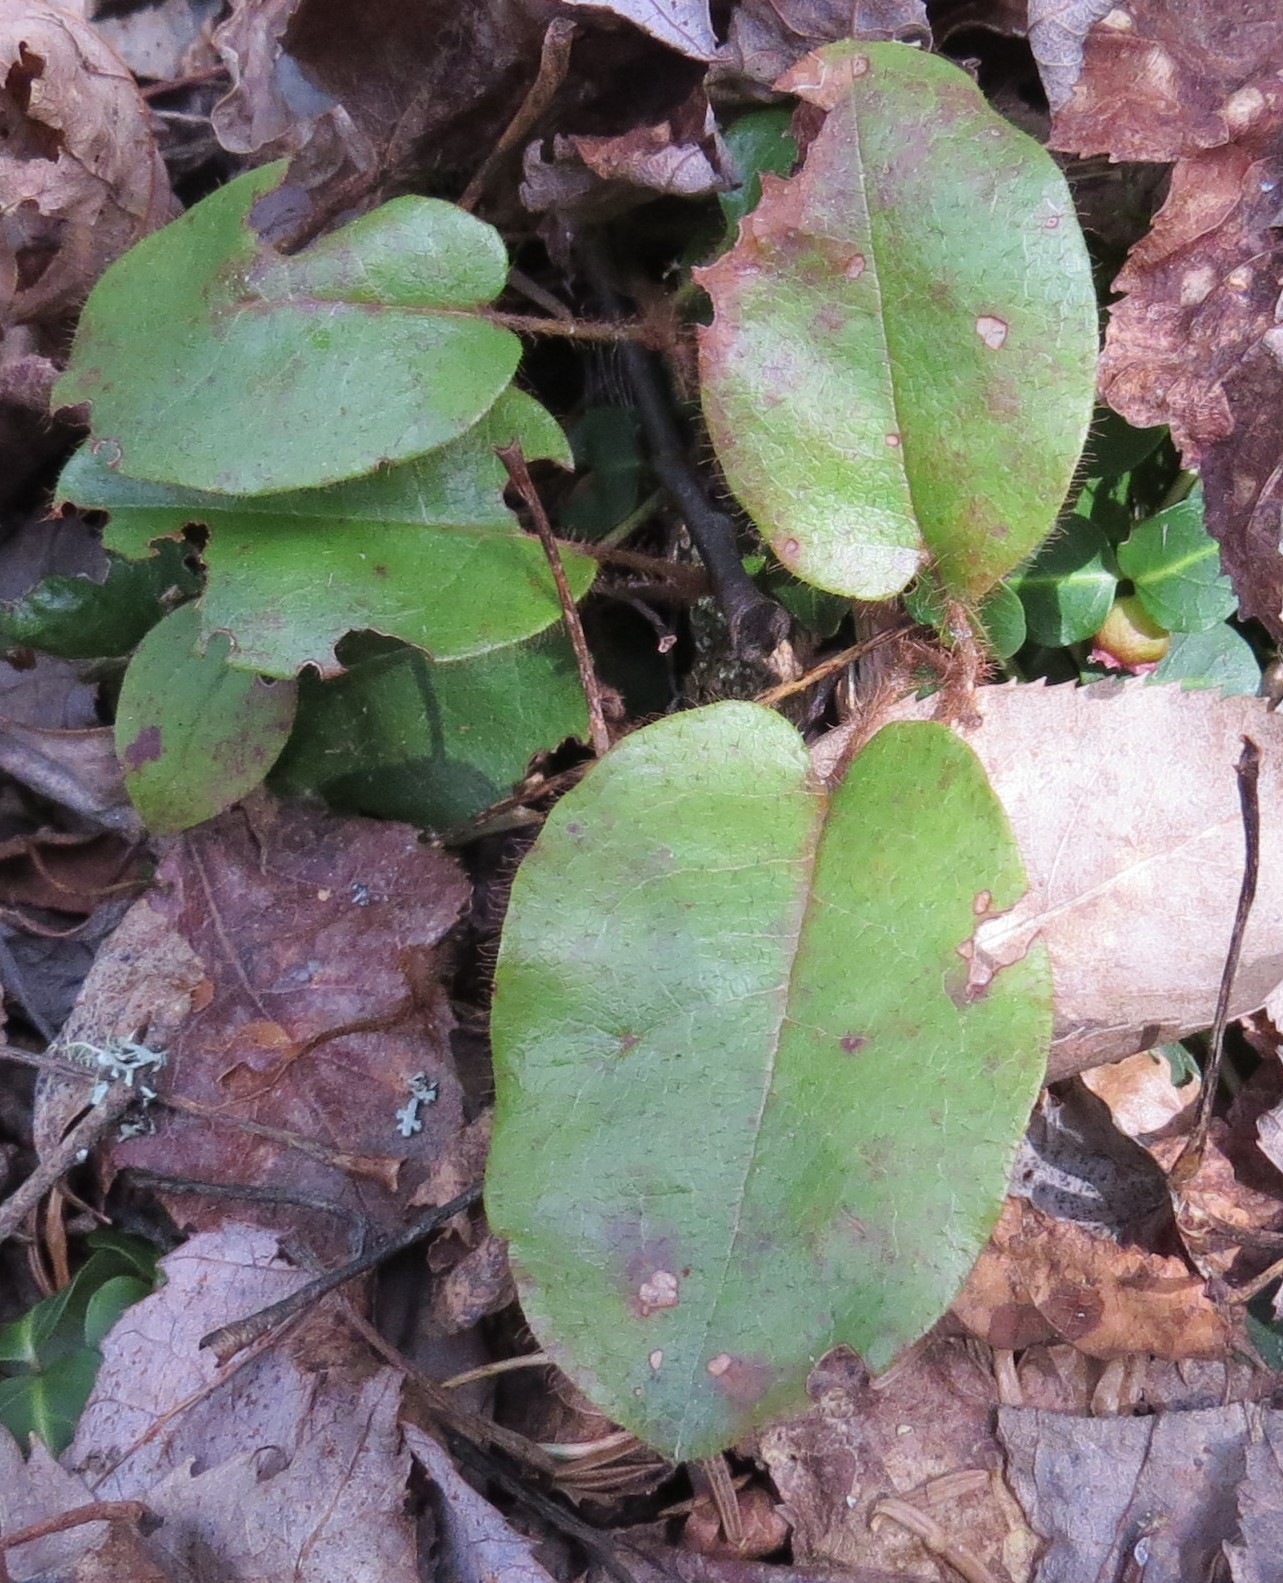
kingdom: Plantae
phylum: Tracheophyta
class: Magnoliopsida
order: Ericales
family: Ericaceae
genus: Epigaea
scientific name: Epigaea repens
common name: Gravelroot
